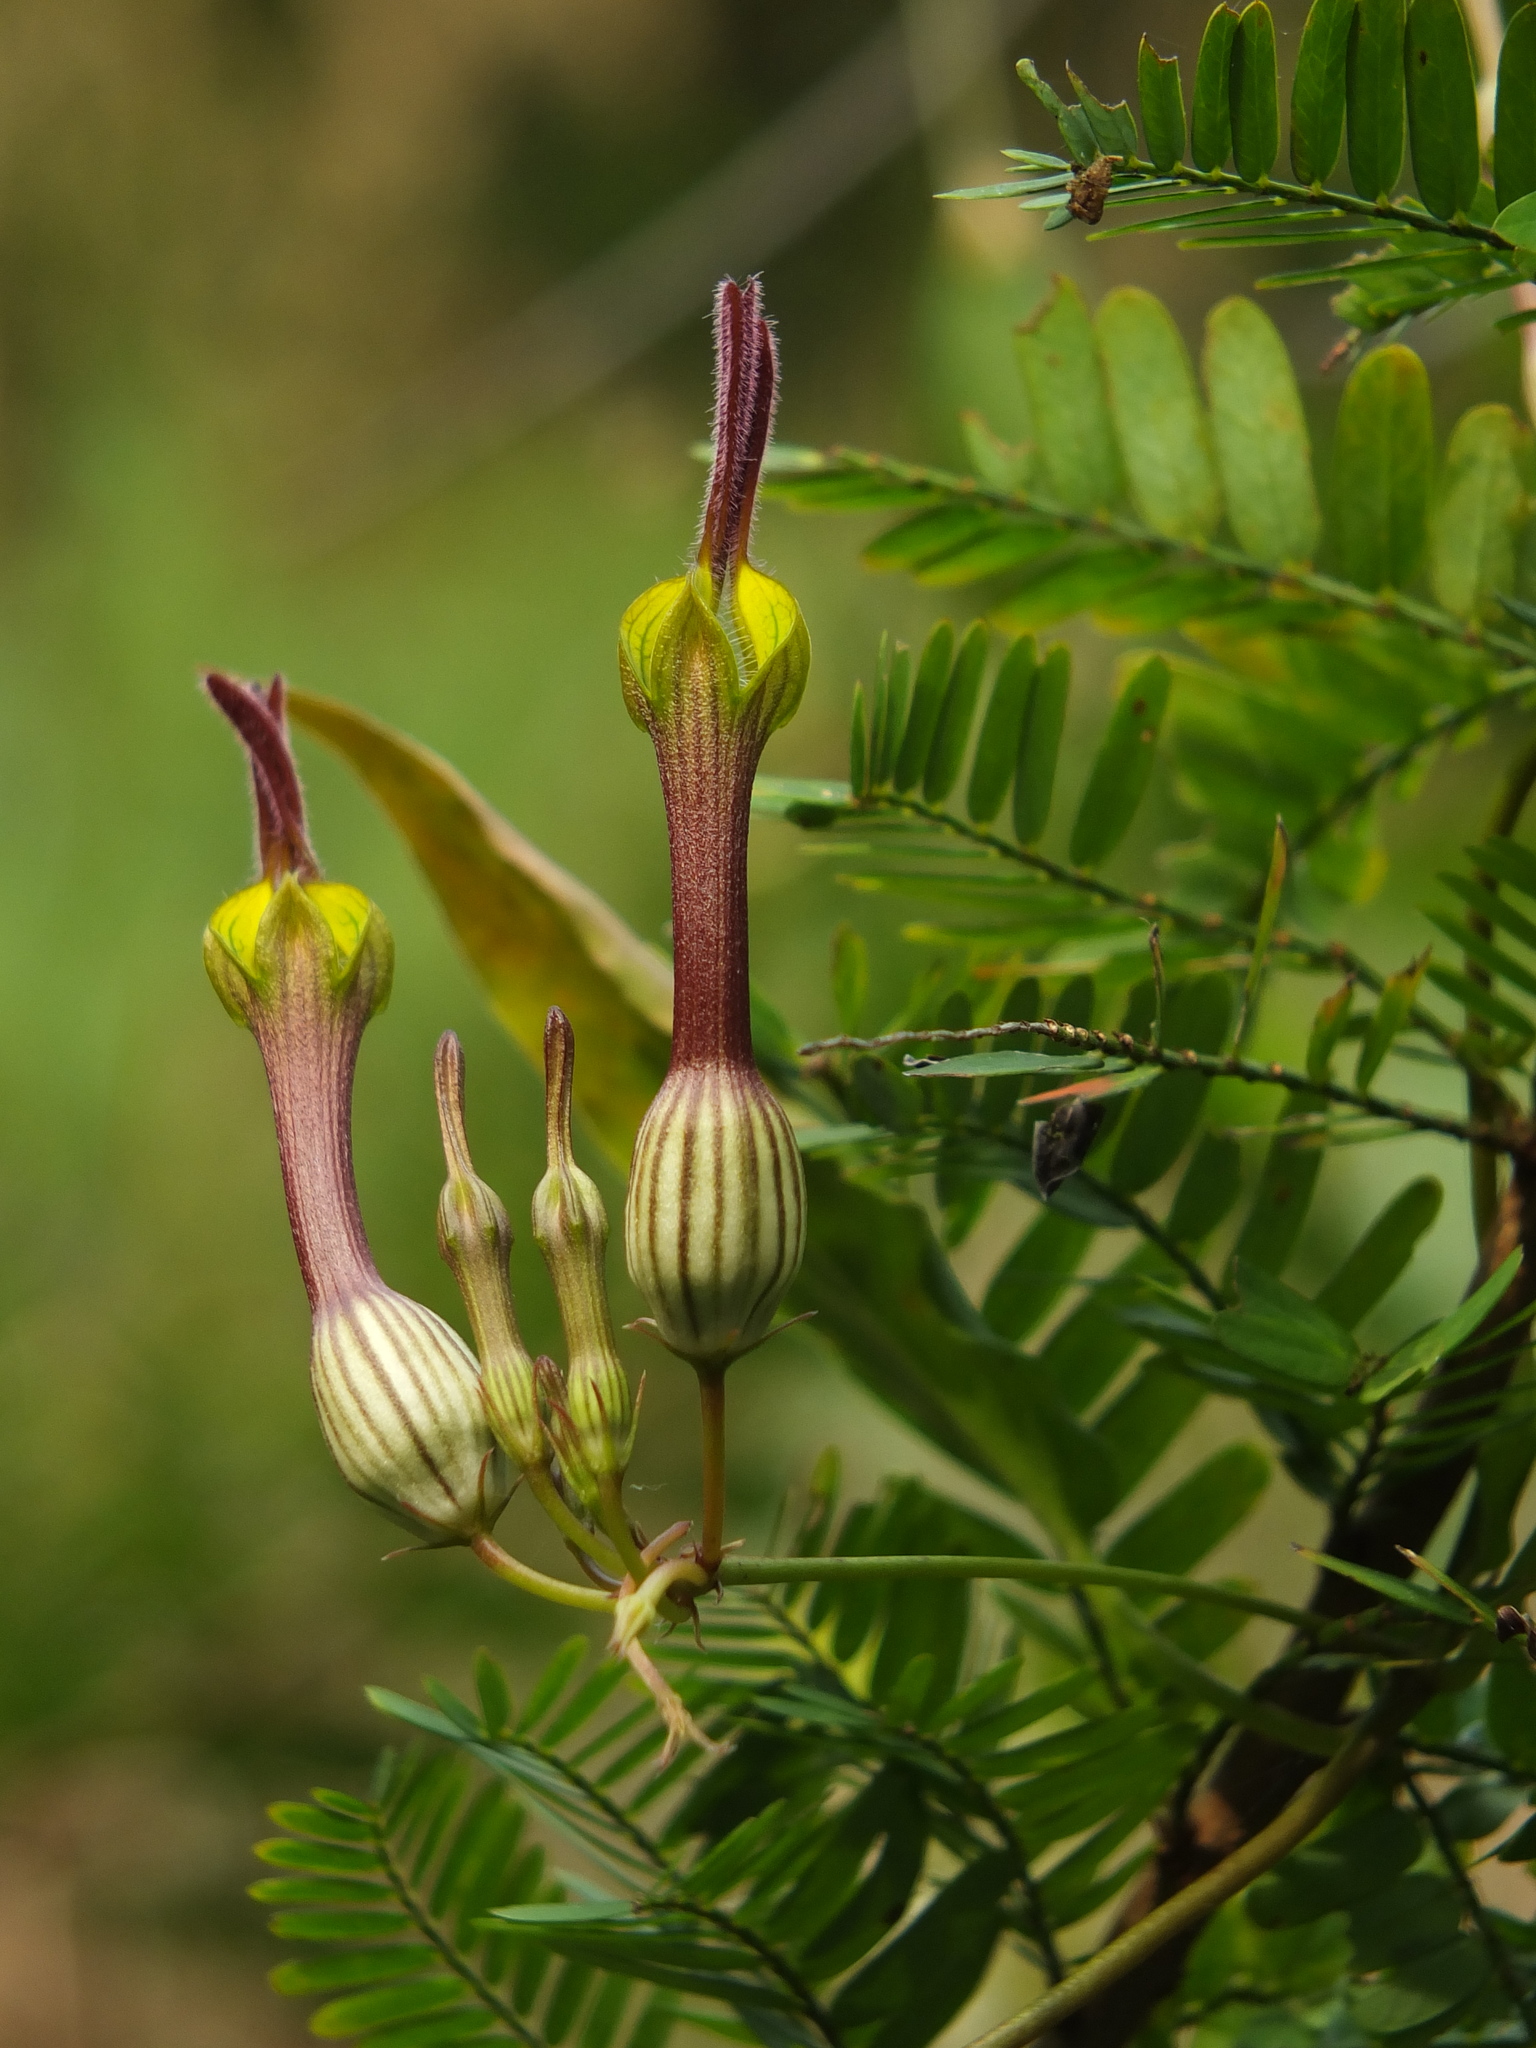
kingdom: Plantae
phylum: Tracheophyta
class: Magnoliopsida
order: Gentianales
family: Apocynaceae
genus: Ceropegia
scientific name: Ceropegia candelabrum
